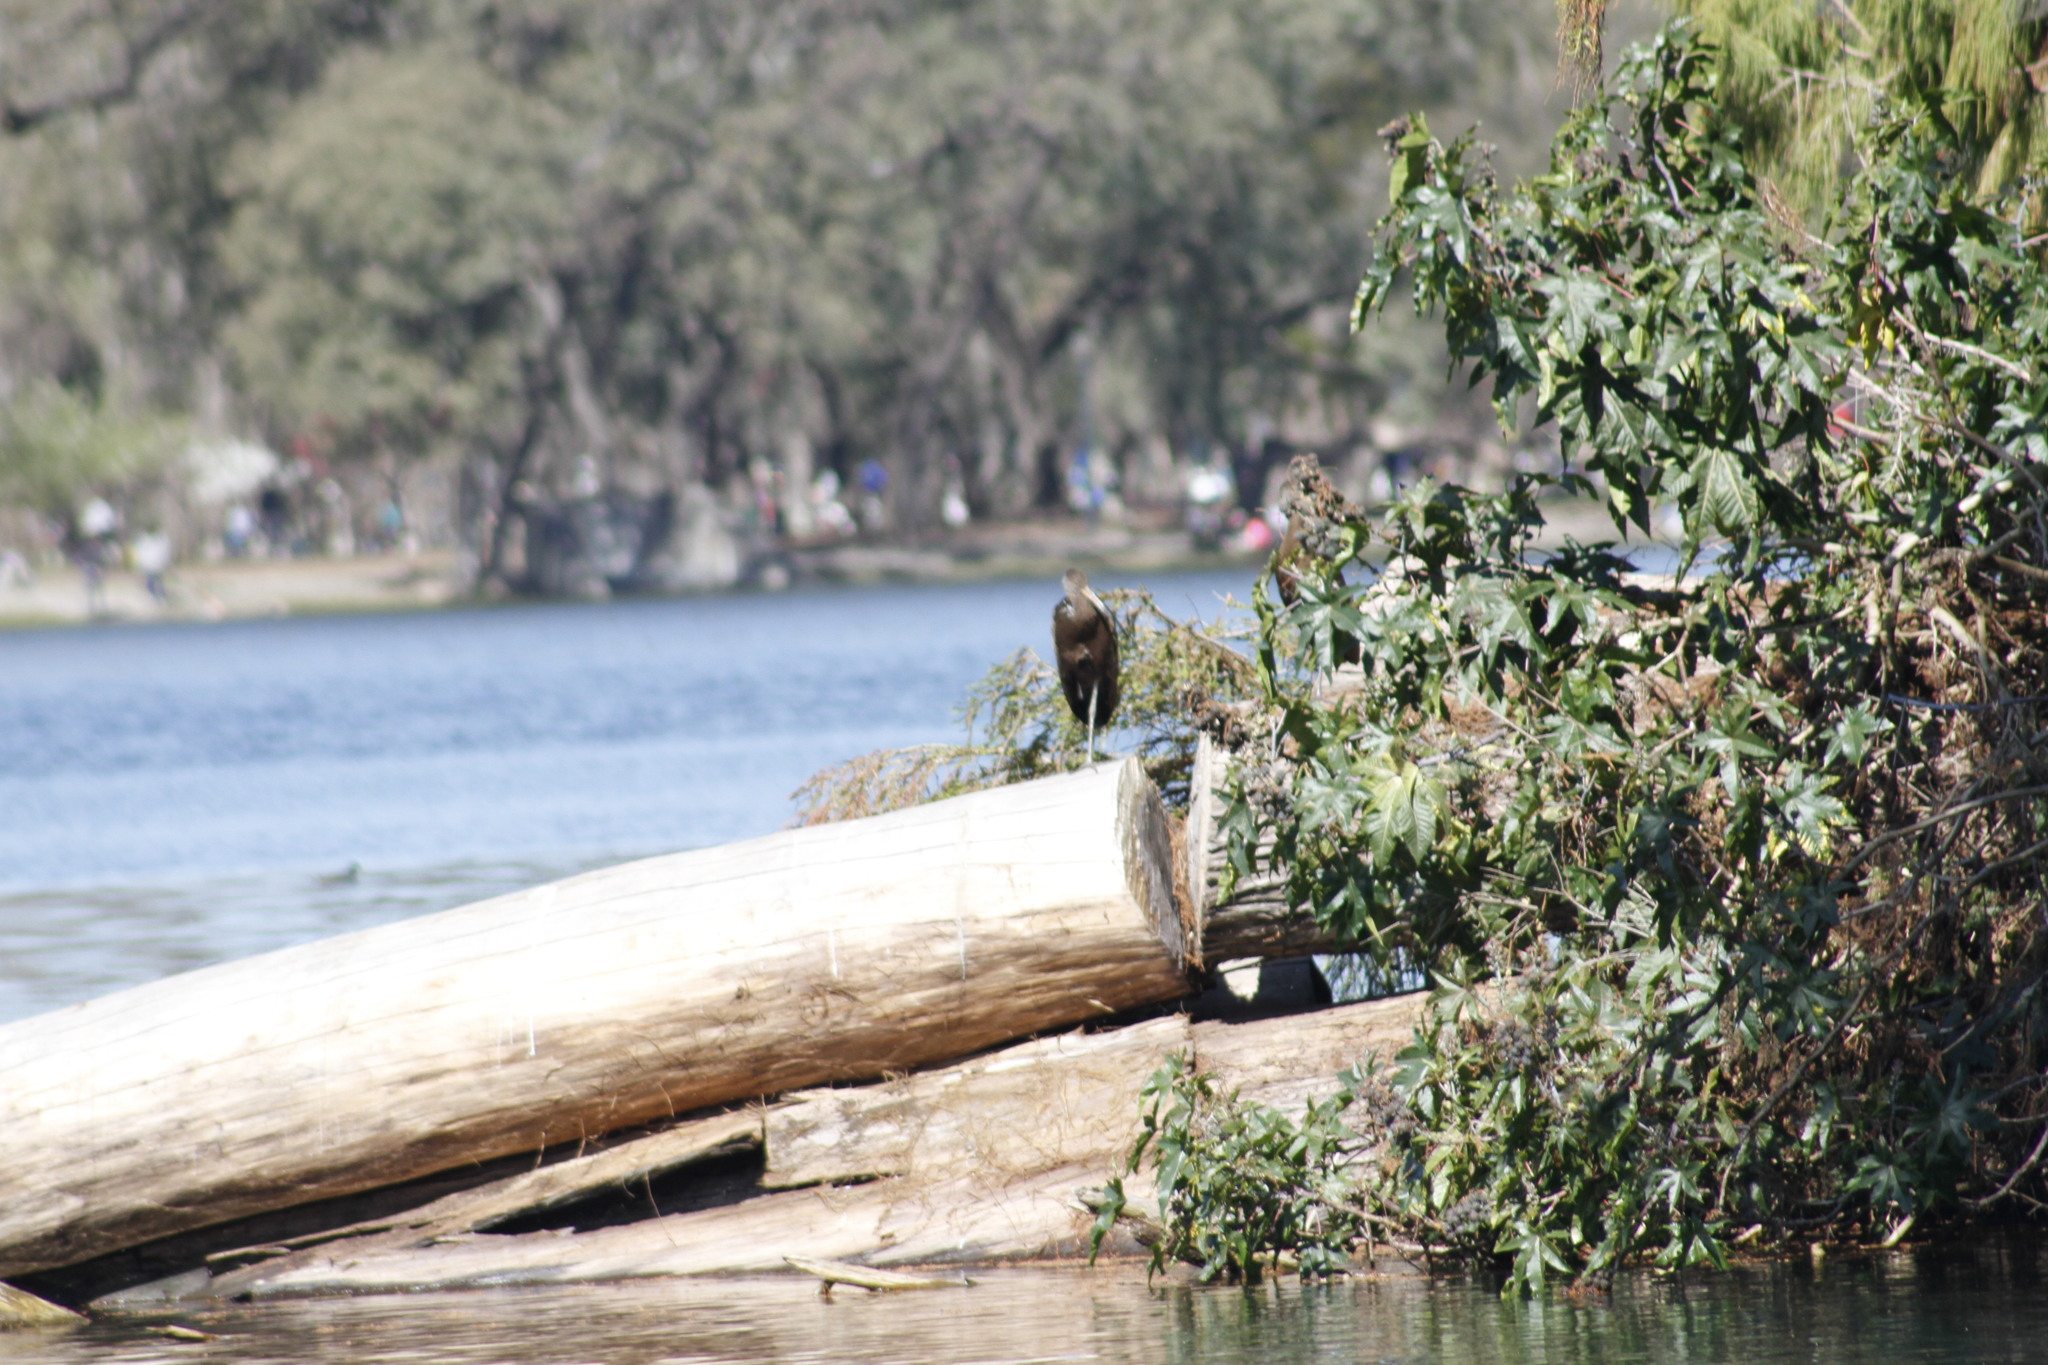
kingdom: Animalia
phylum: Chordata
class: Aves
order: Gruiformes
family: Aramidae
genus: Aramus
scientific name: Aramus guarauna
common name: Limpkin
